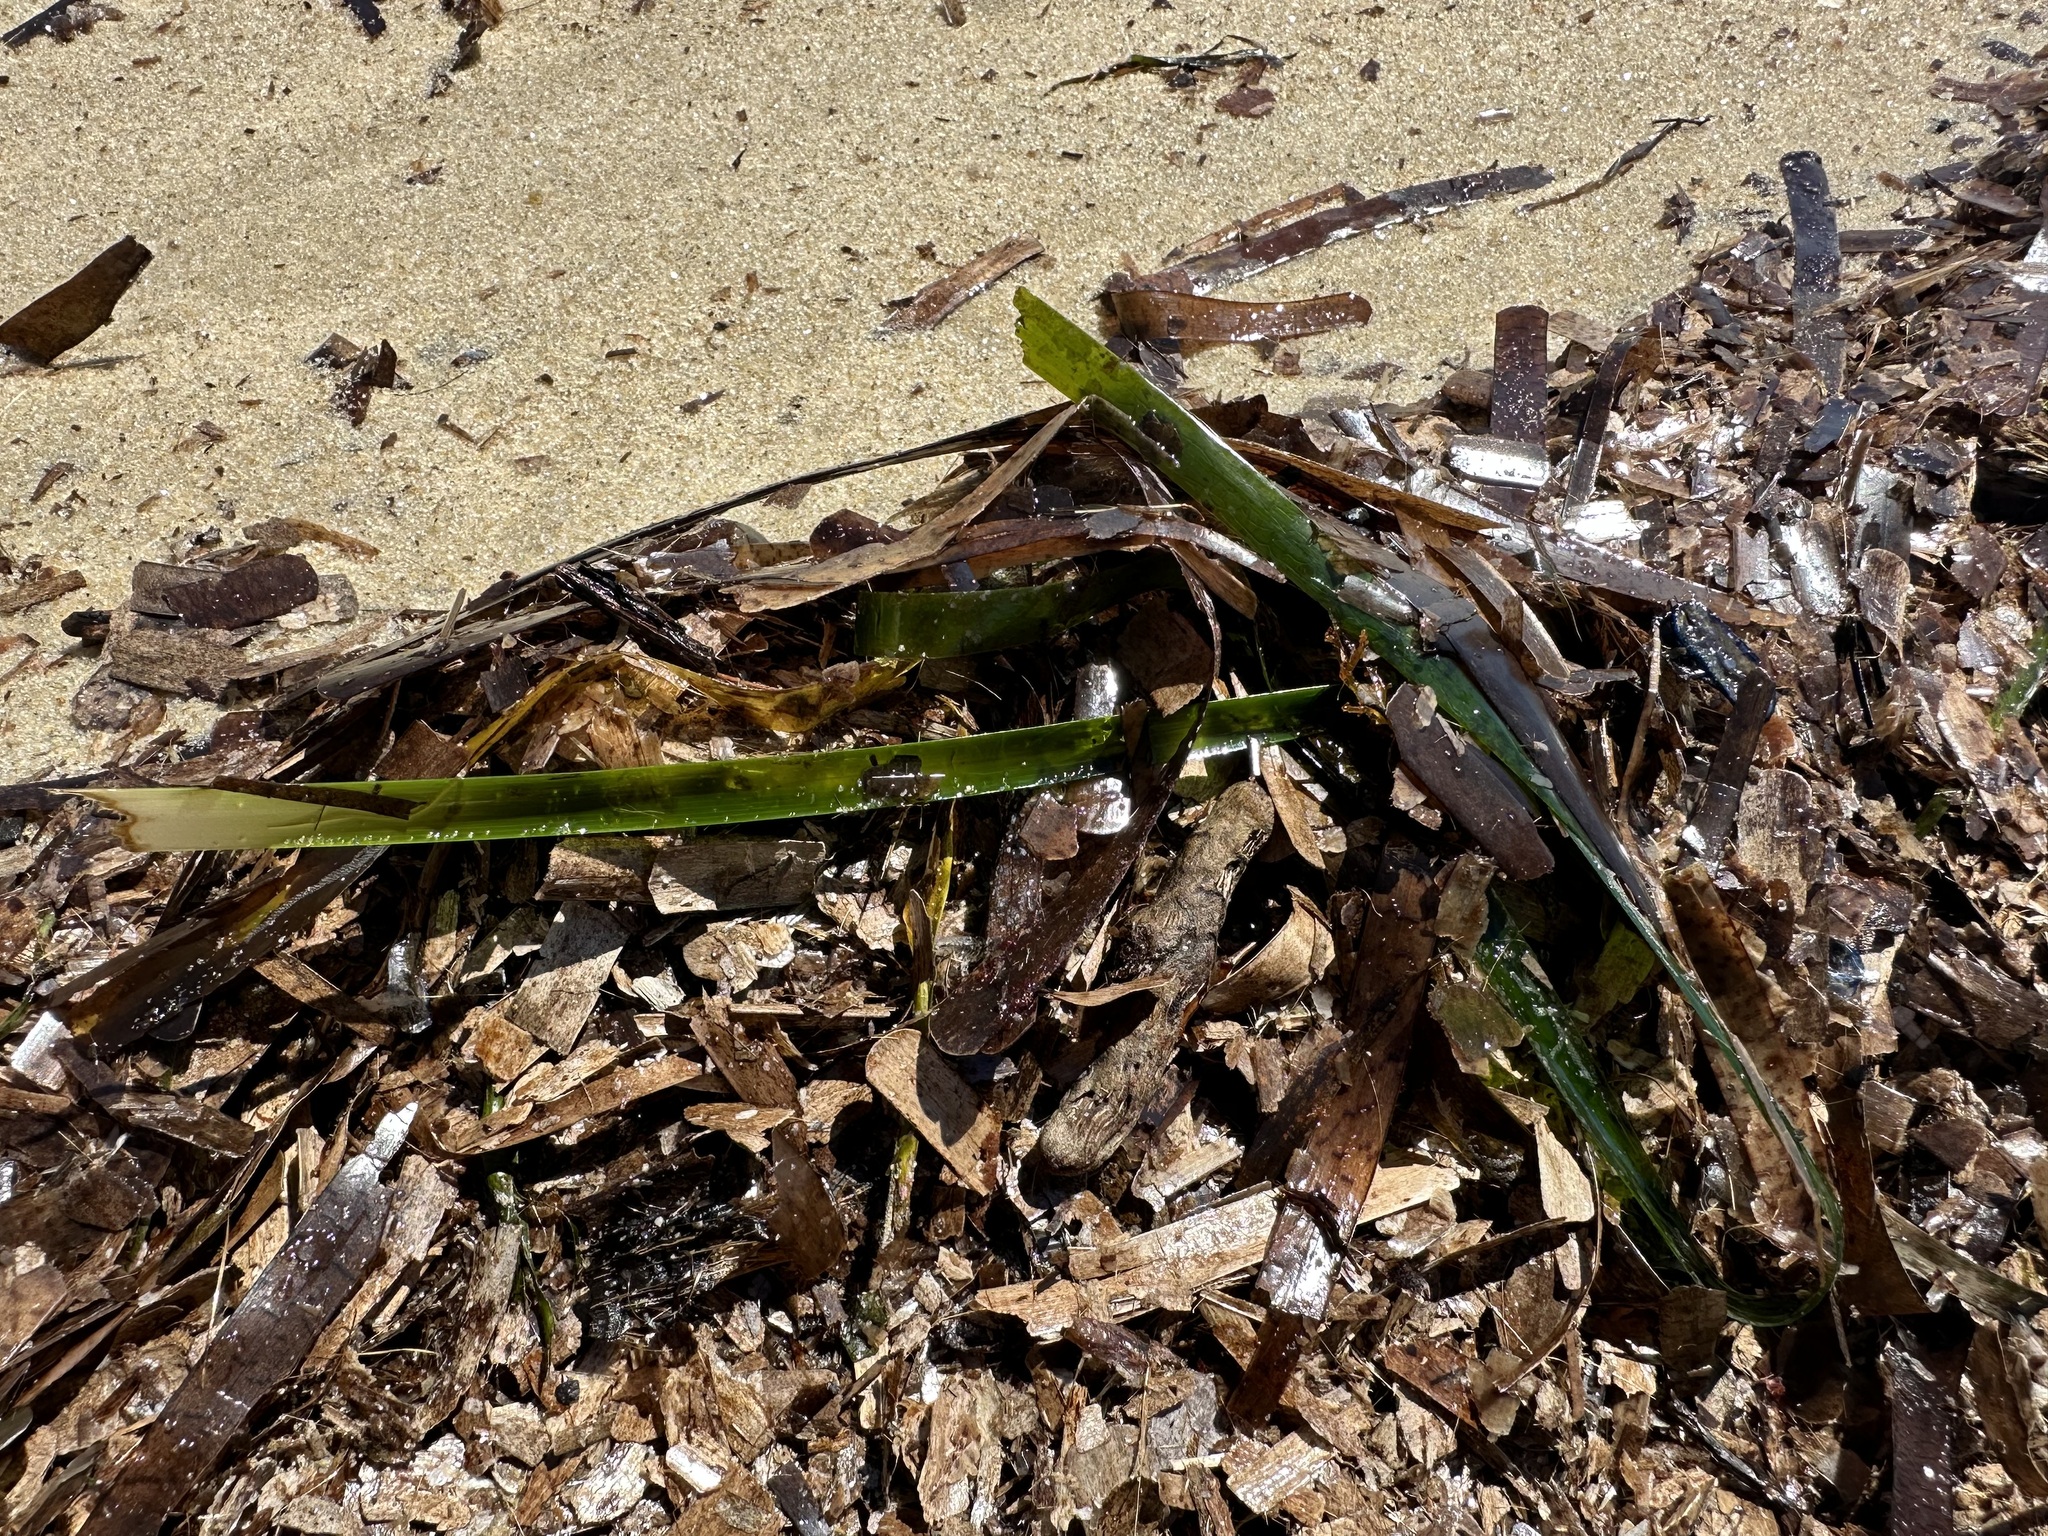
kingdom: Plantae
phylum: Tracheophyta
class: Liliopsida
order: Alismatales
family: Posidoniaceae
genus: Posidonia
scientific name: Posidonia oceanica
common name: Mediterranean tapeweed
